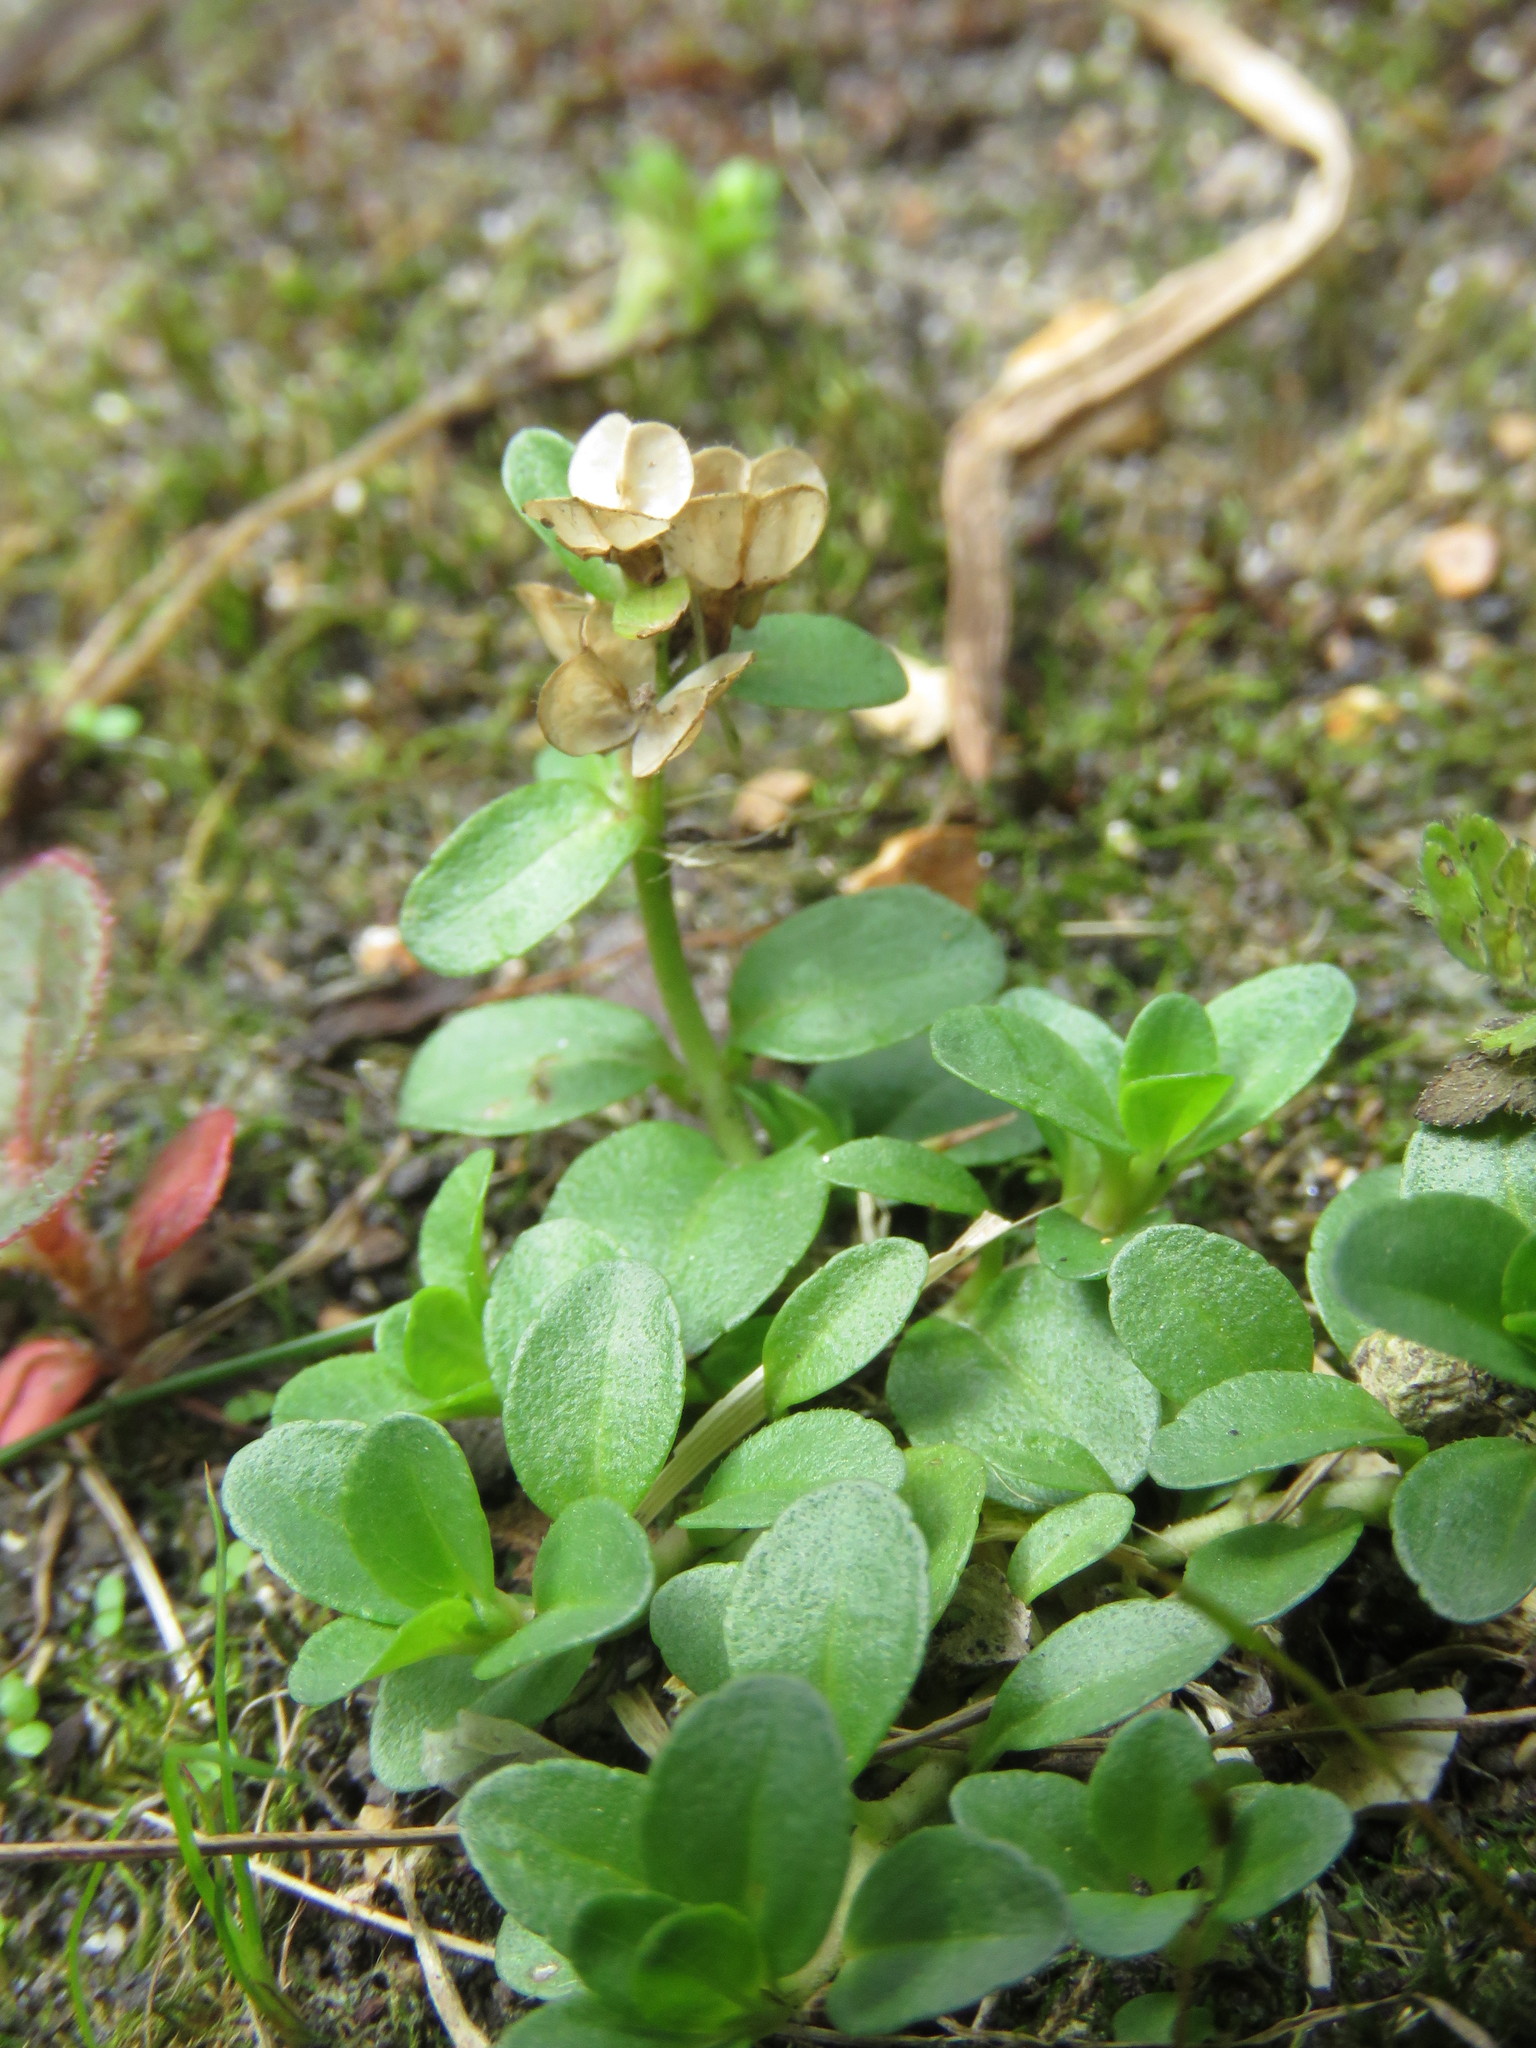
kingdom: Plantae
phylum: Tracheophyta
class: Magnoliopsida
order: Lamiales
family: Plantaginaceae
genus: Veronica
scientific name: Veronica serpyllifolia
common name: Thyme-leaved speedwell
